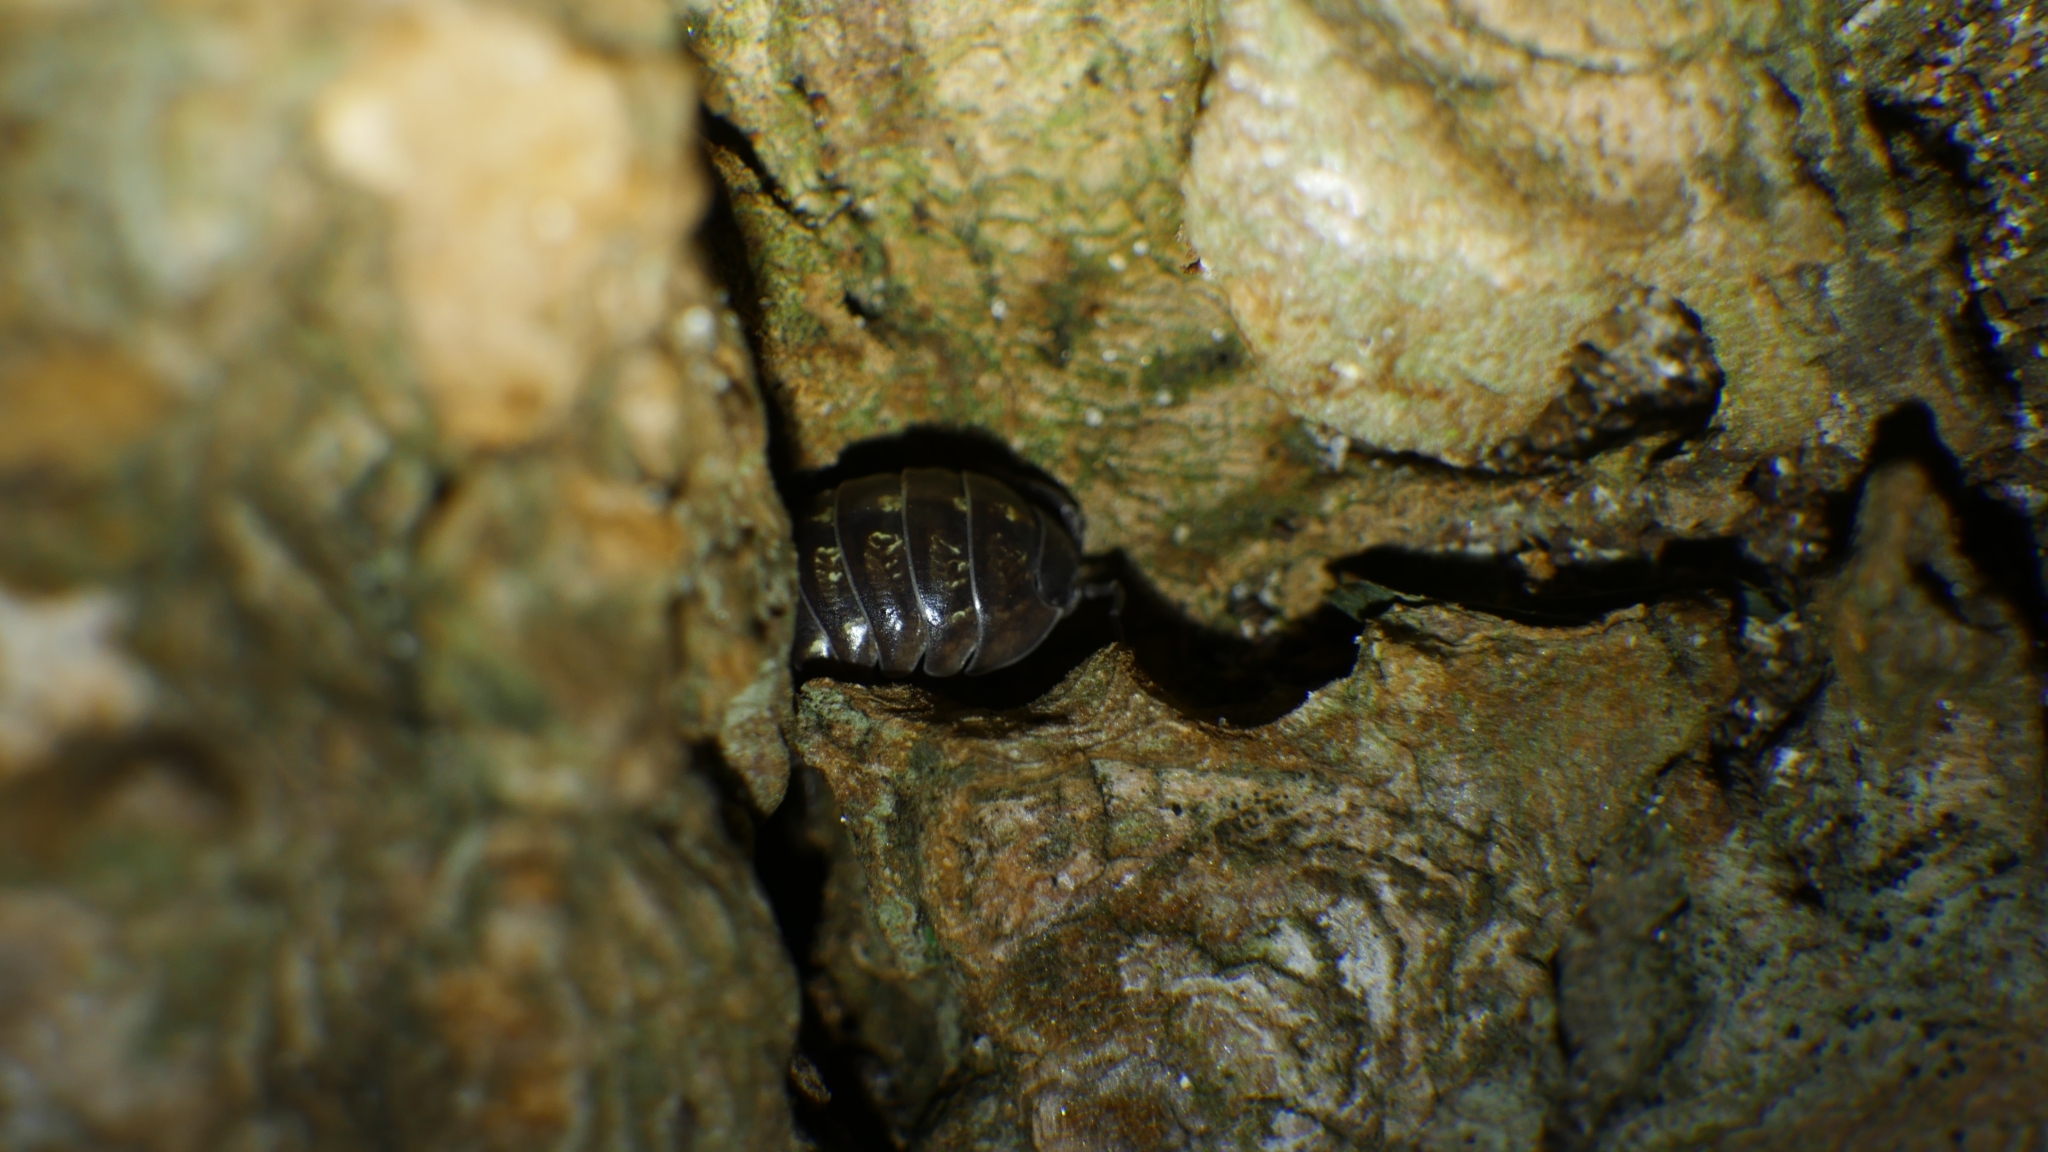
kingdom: Animalia
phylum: Arthropoda
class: Malacostraca
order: Isopoda
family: Armadillidiidae
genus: Armadillidium
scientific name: Armadillidium vulgare
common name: Common pill woodlouse
